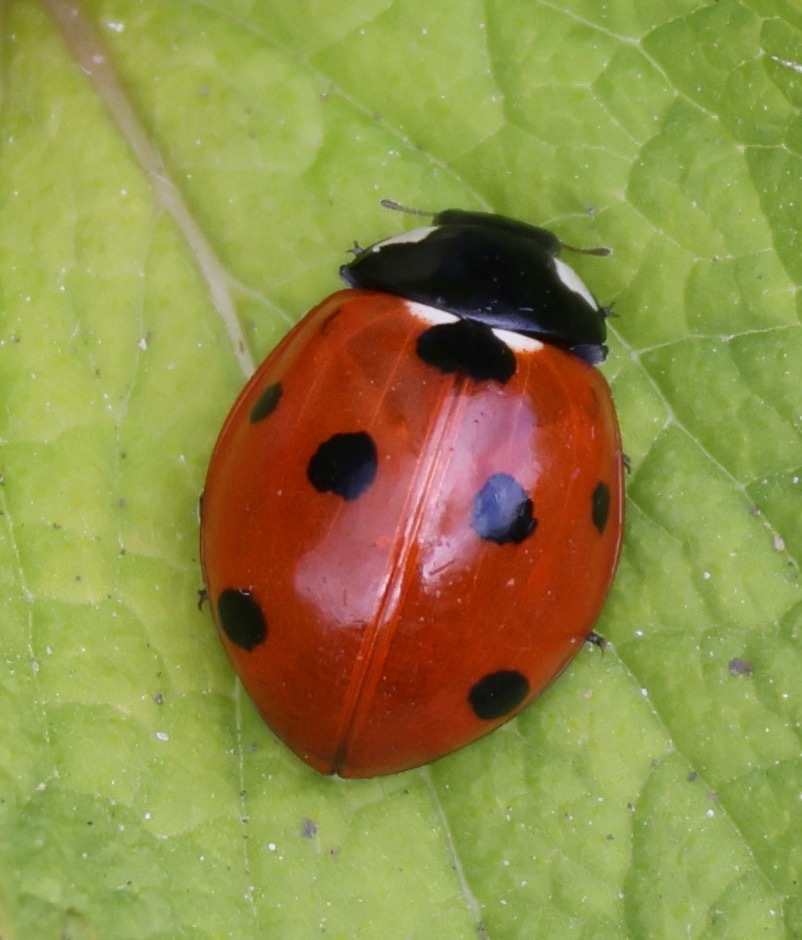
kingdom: Animalia
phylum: Arthropoda
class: Insecta
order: Coleoptera
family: Coccinellidae
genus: Coccinella
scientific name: Coccinella septempunctata
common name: Sevenspotted lady beetle
